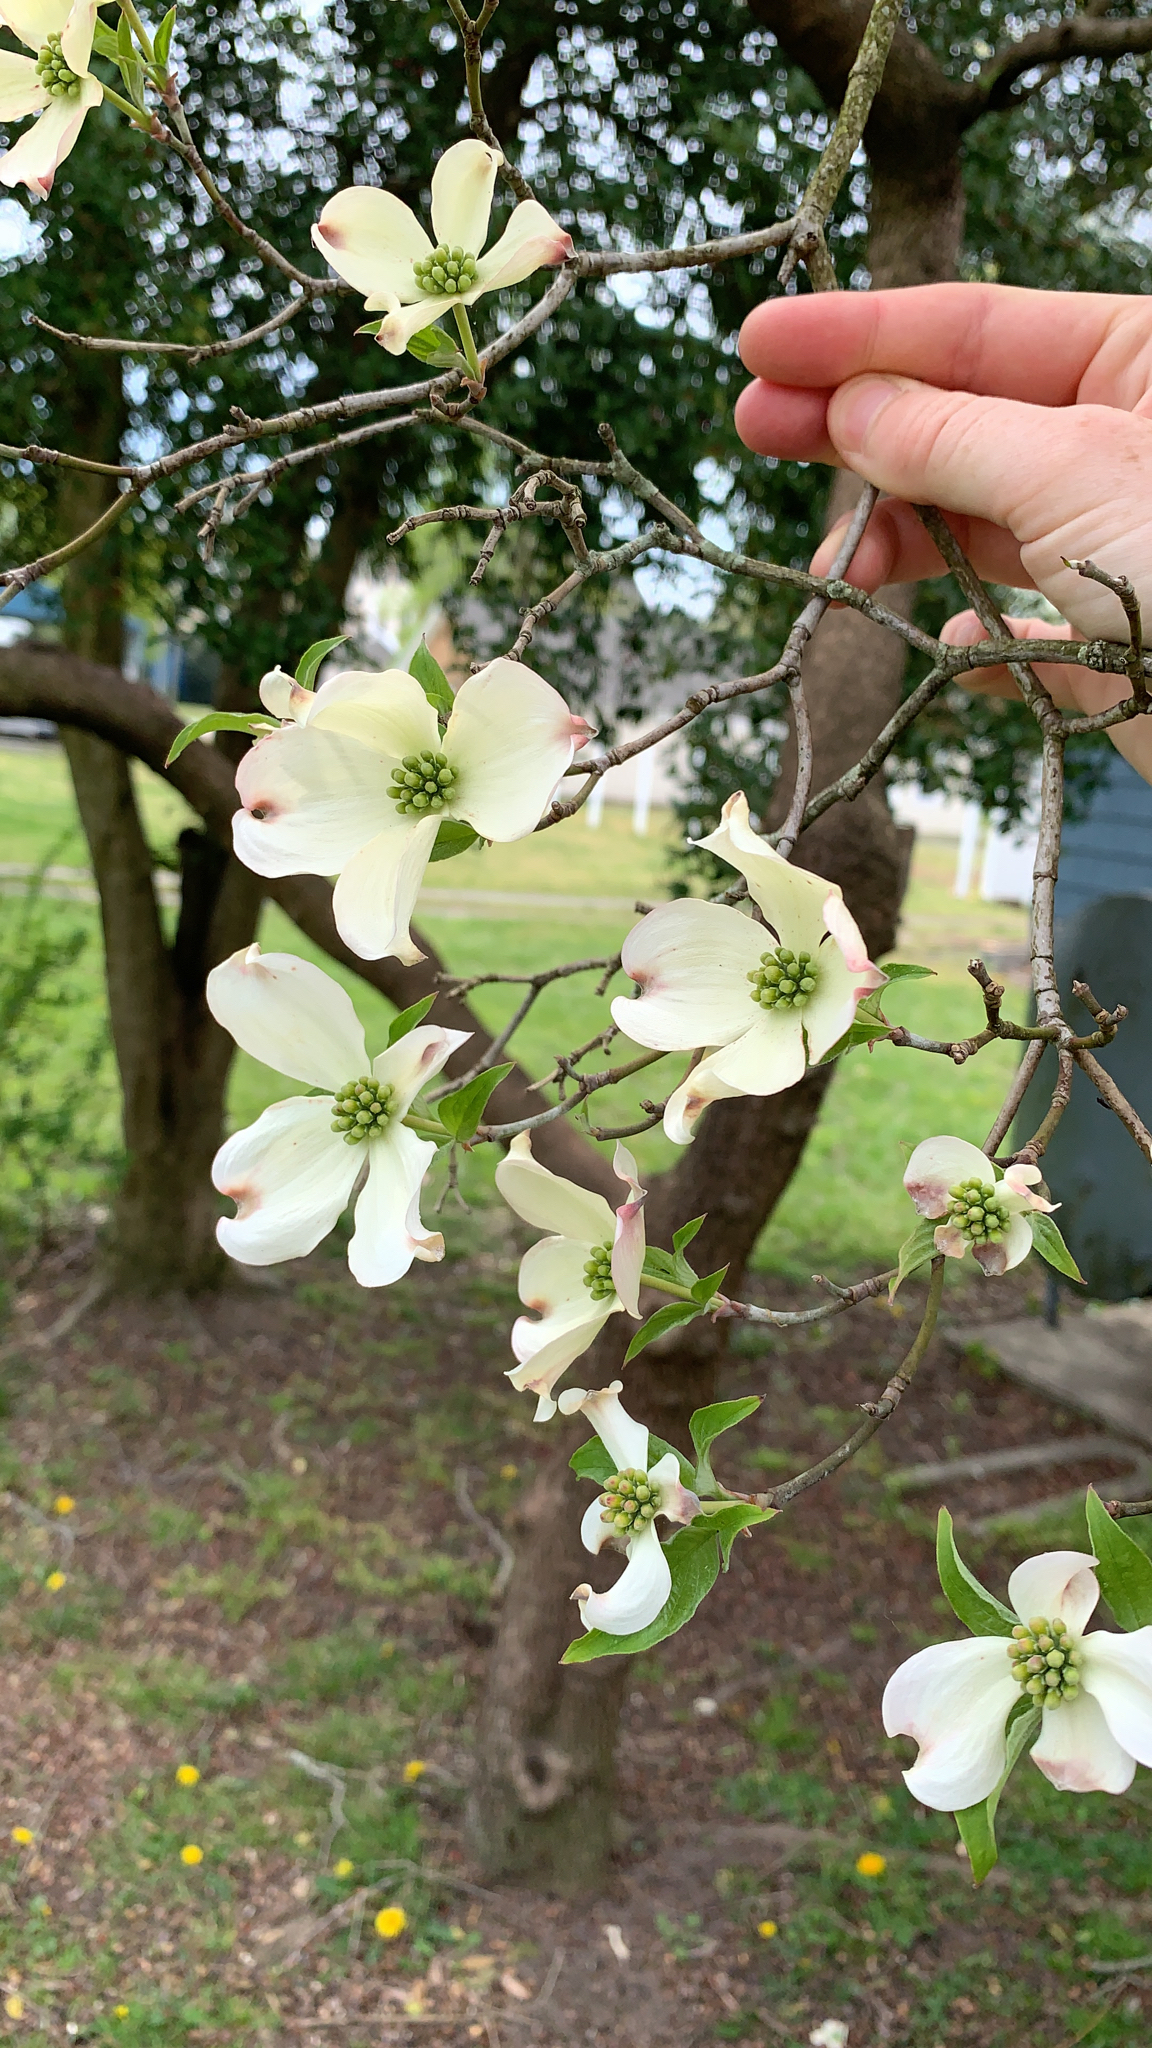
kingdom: Plantae
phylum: Tracheophyta
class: Magnoliopsida
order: Cornales
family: Cornaceae
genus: Cornus
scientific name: Cornus florida
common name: Flowering dogwood
